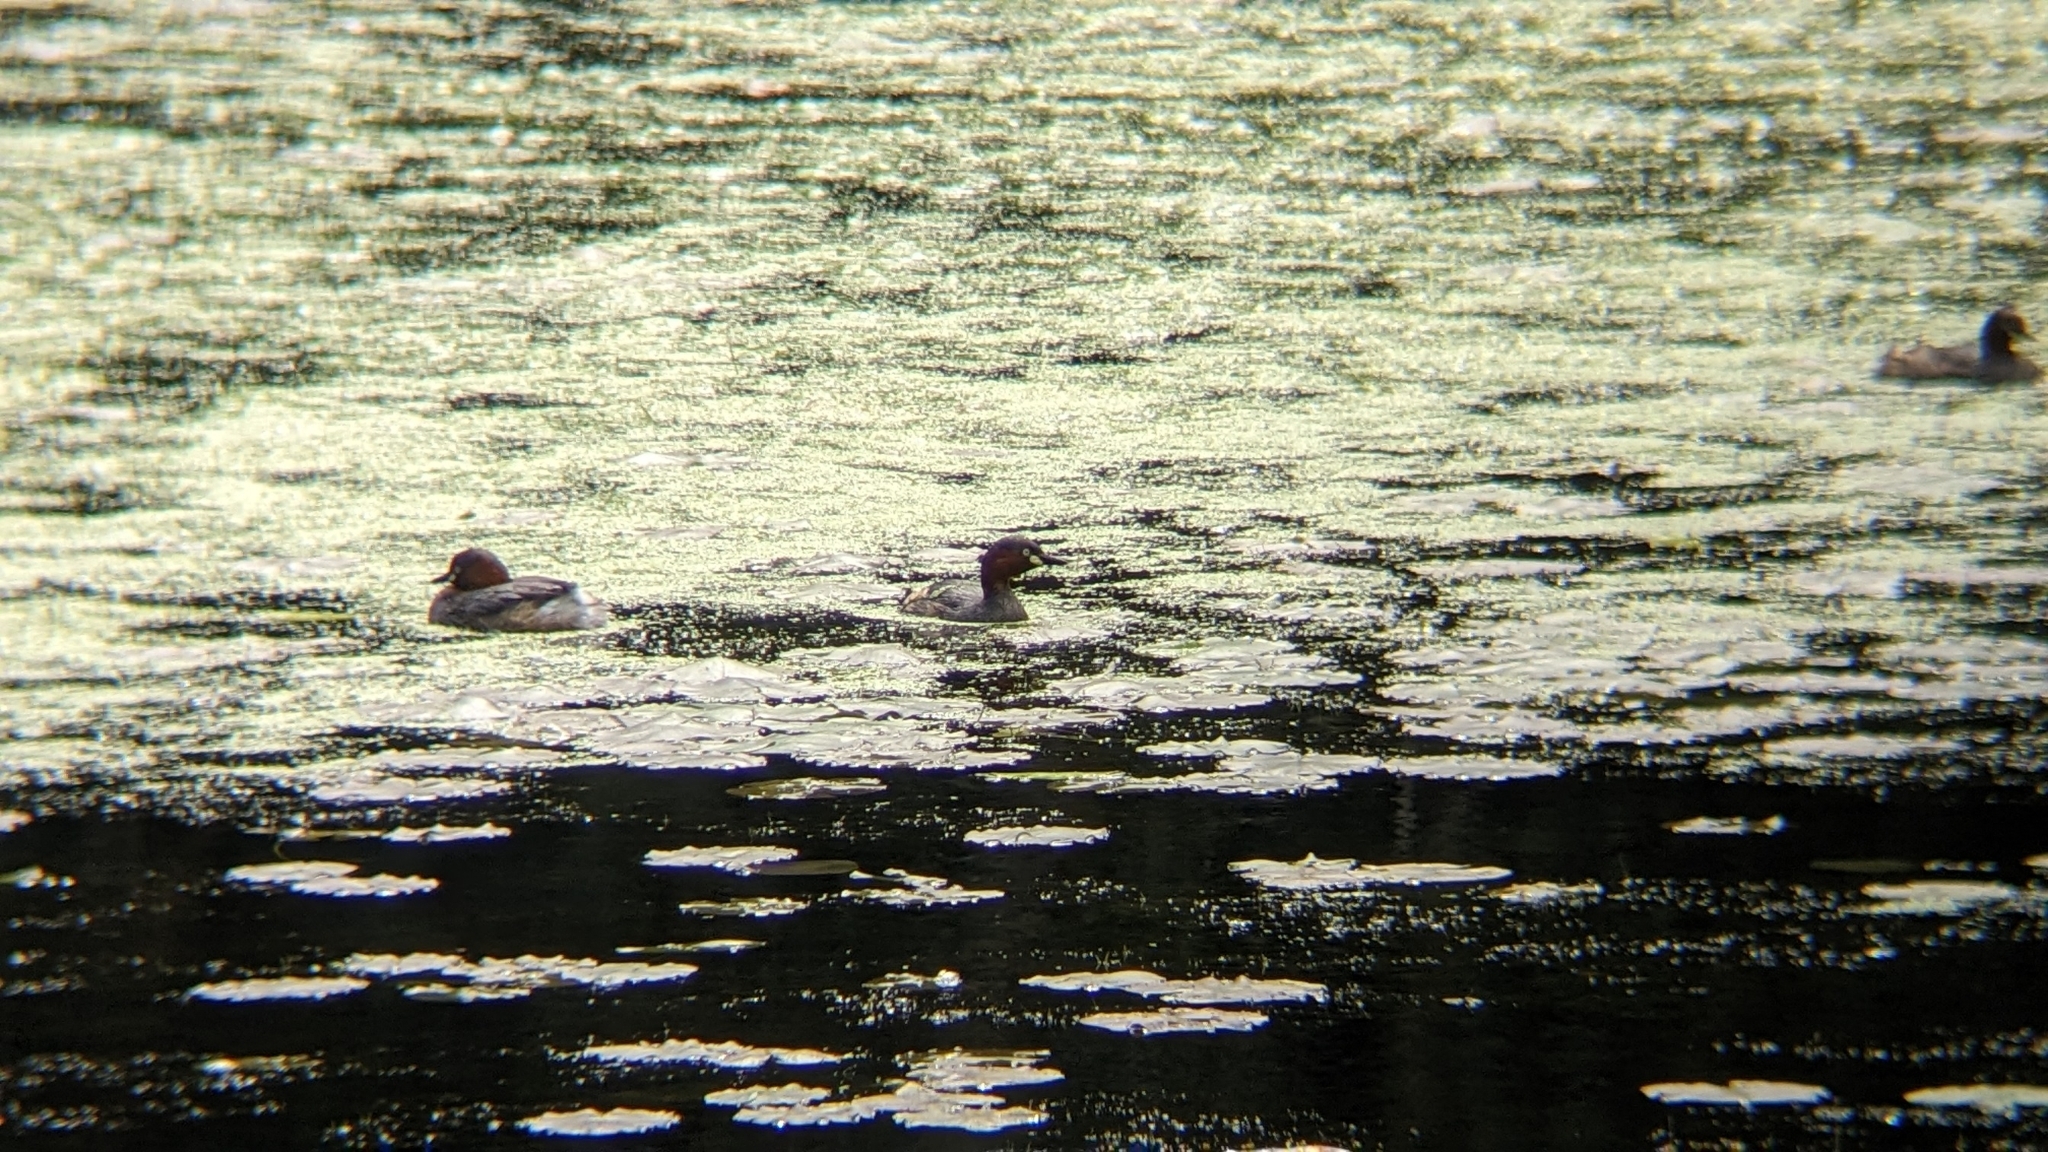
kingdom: Animalia
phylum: Chordata
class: Aves
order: Podicipediformes
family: Podicipedidae
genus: Tachybaptus
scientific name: Tachybaptus ruficollis
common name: Little grebe
